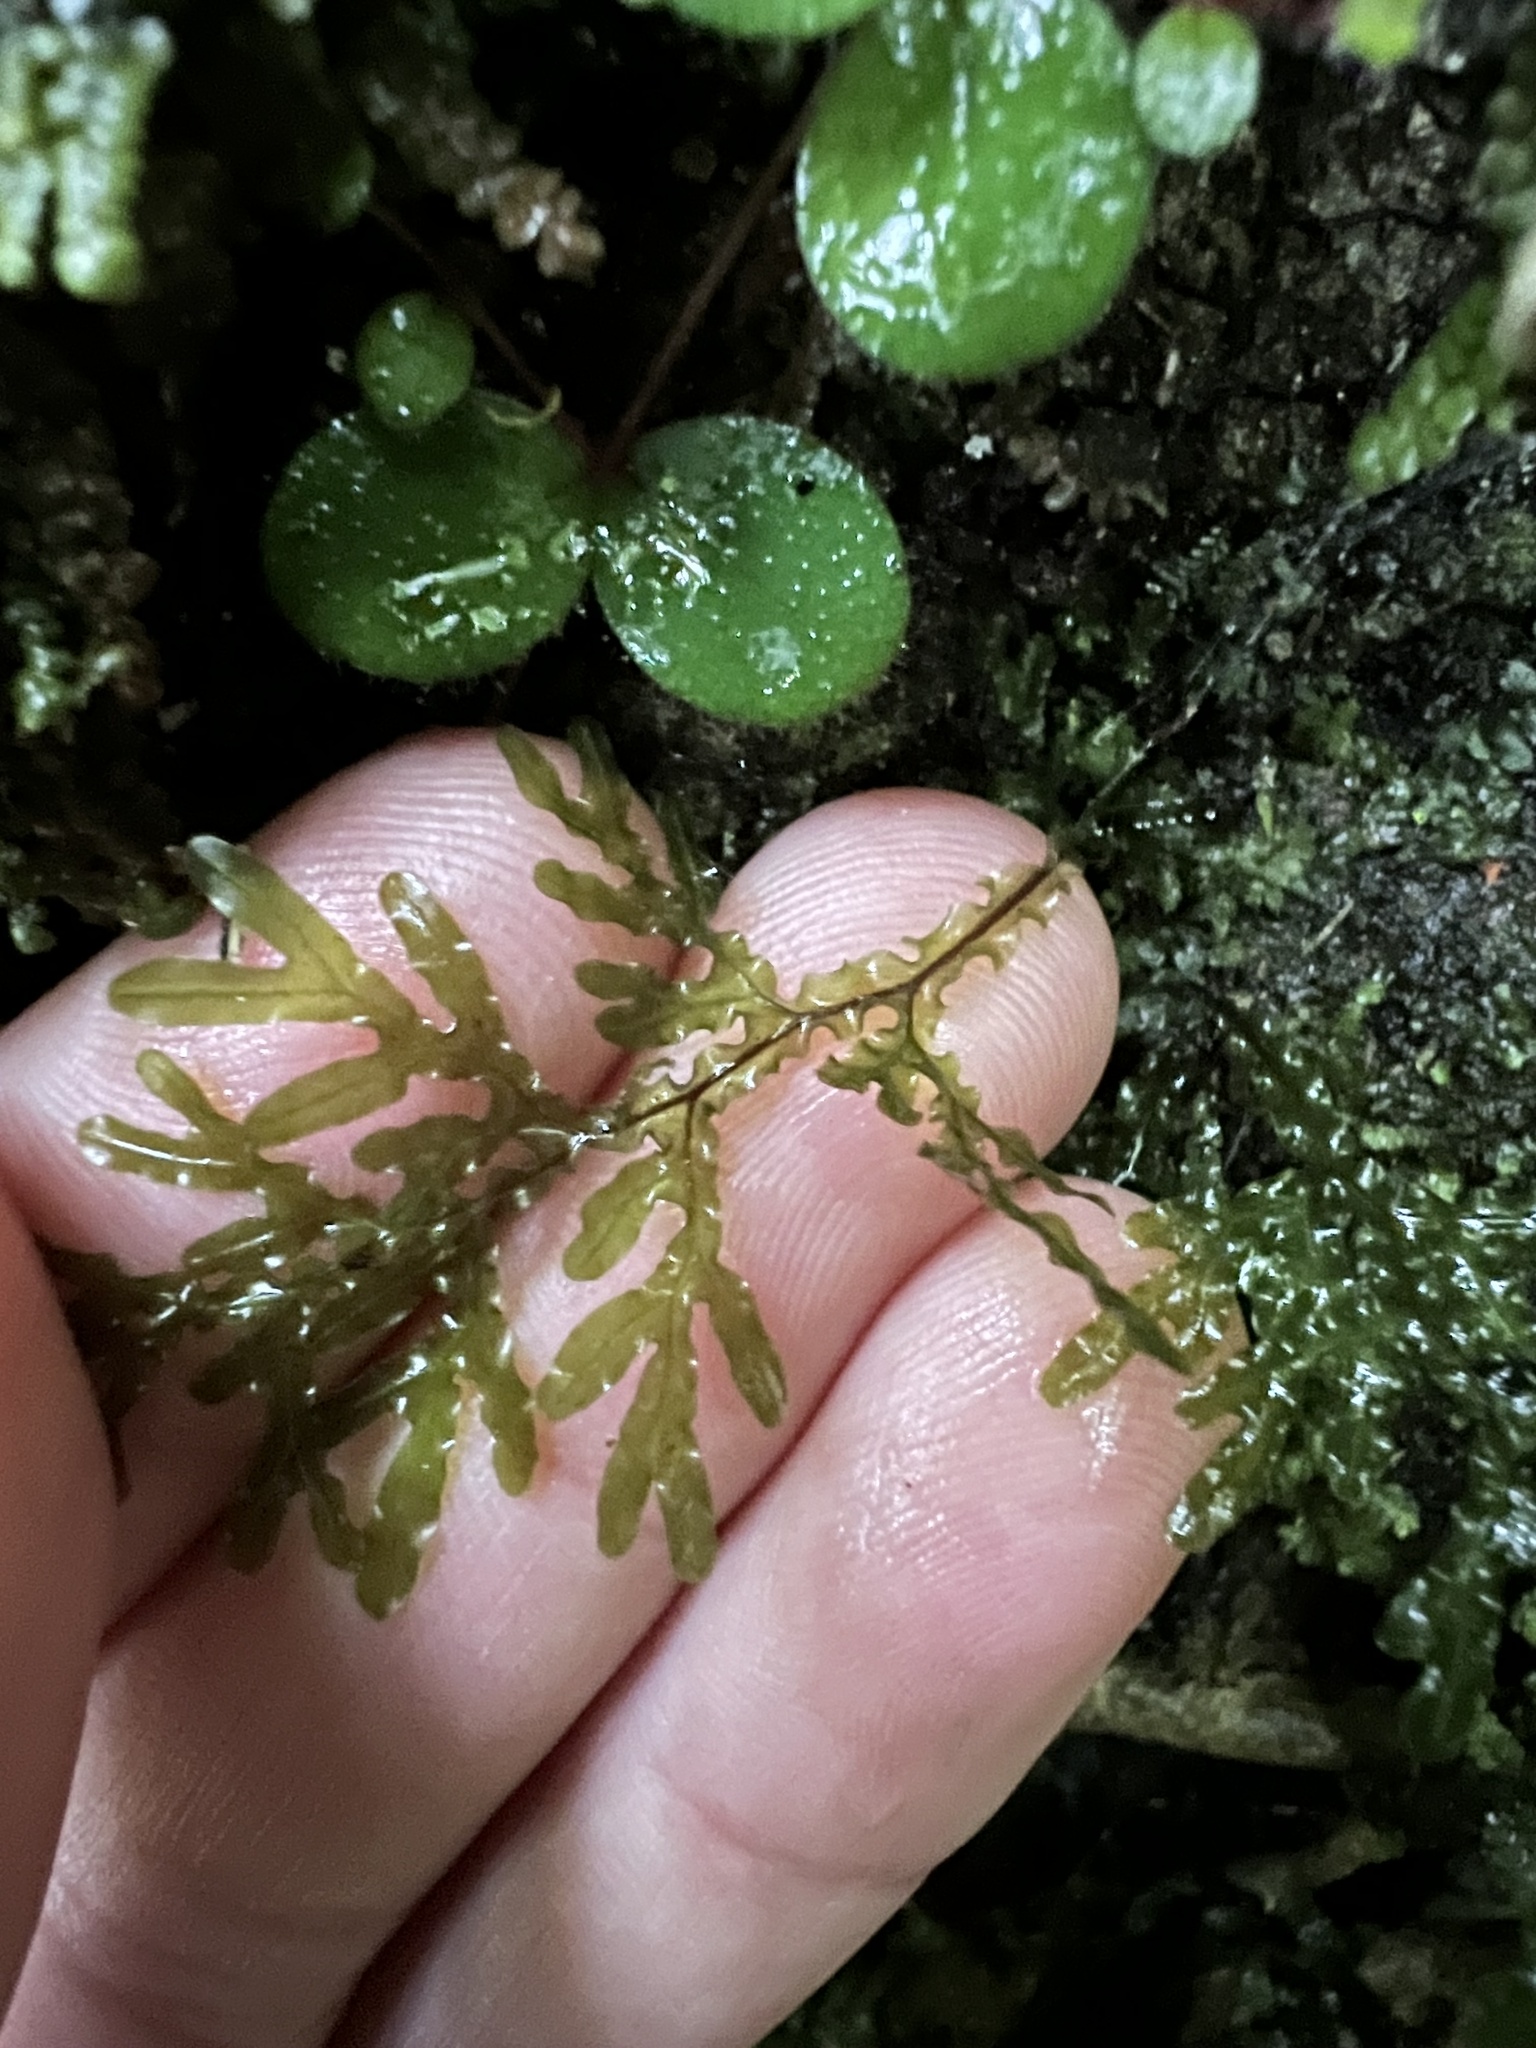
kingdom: Plantae
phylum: Tracheophyta
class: Polypodiopsida
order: Hymenophyllales
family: Hymenophyllaceae
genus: Hymenophyllum
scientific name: Hymenophyllum flexuosum
